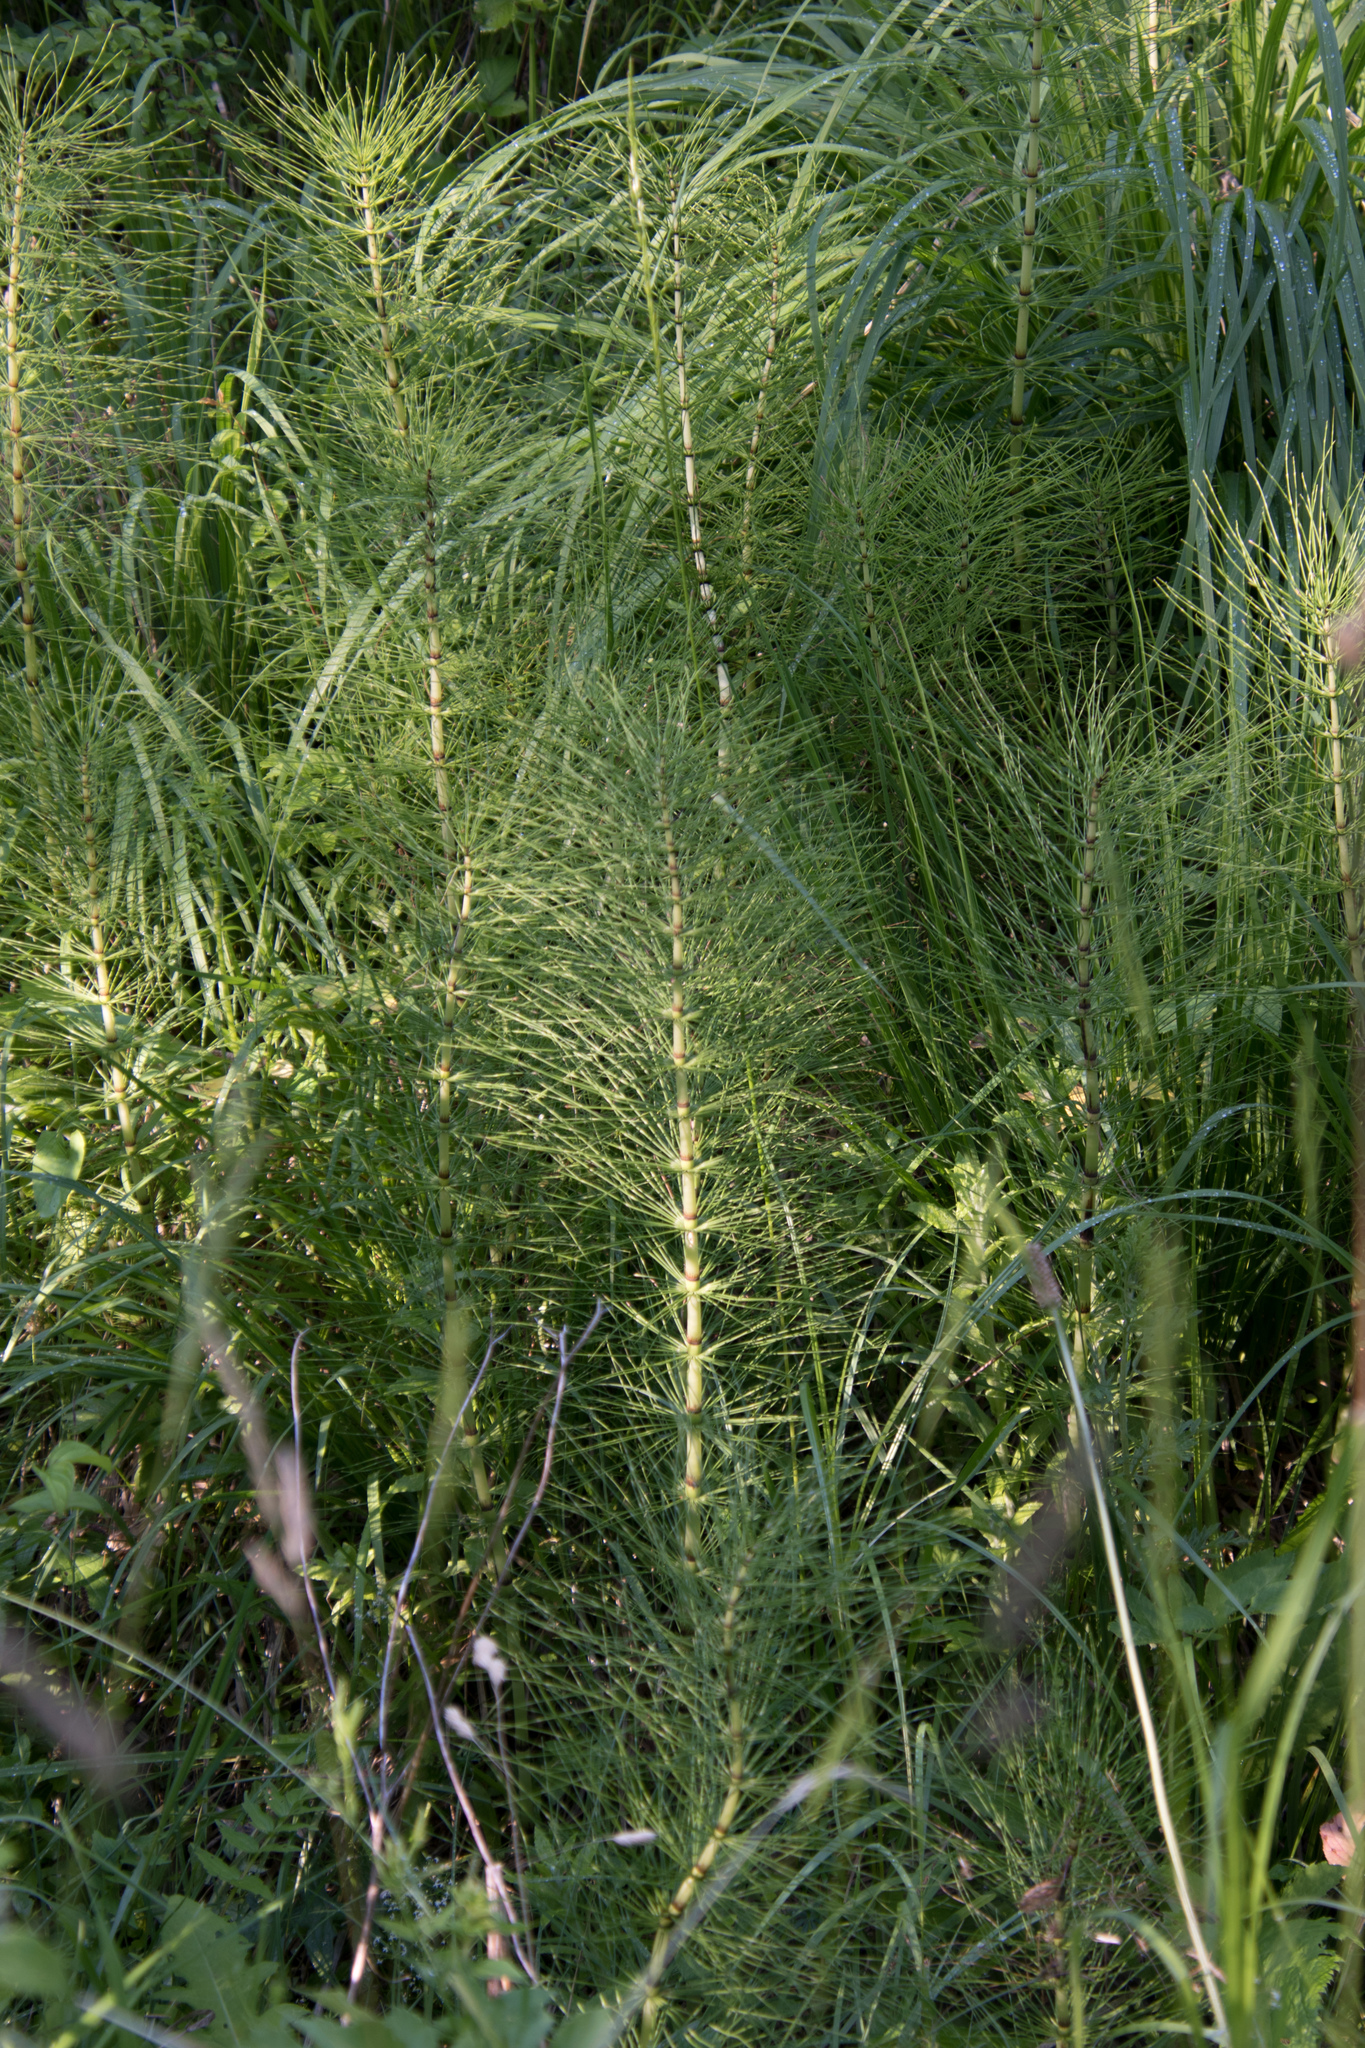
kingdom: Plantae
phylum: Tracheophyta
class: Polypodiopsida
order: Equisetales
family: Equisetaceae
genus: Equisetum
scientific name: Equisetum telmateia
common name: Great horsetail
